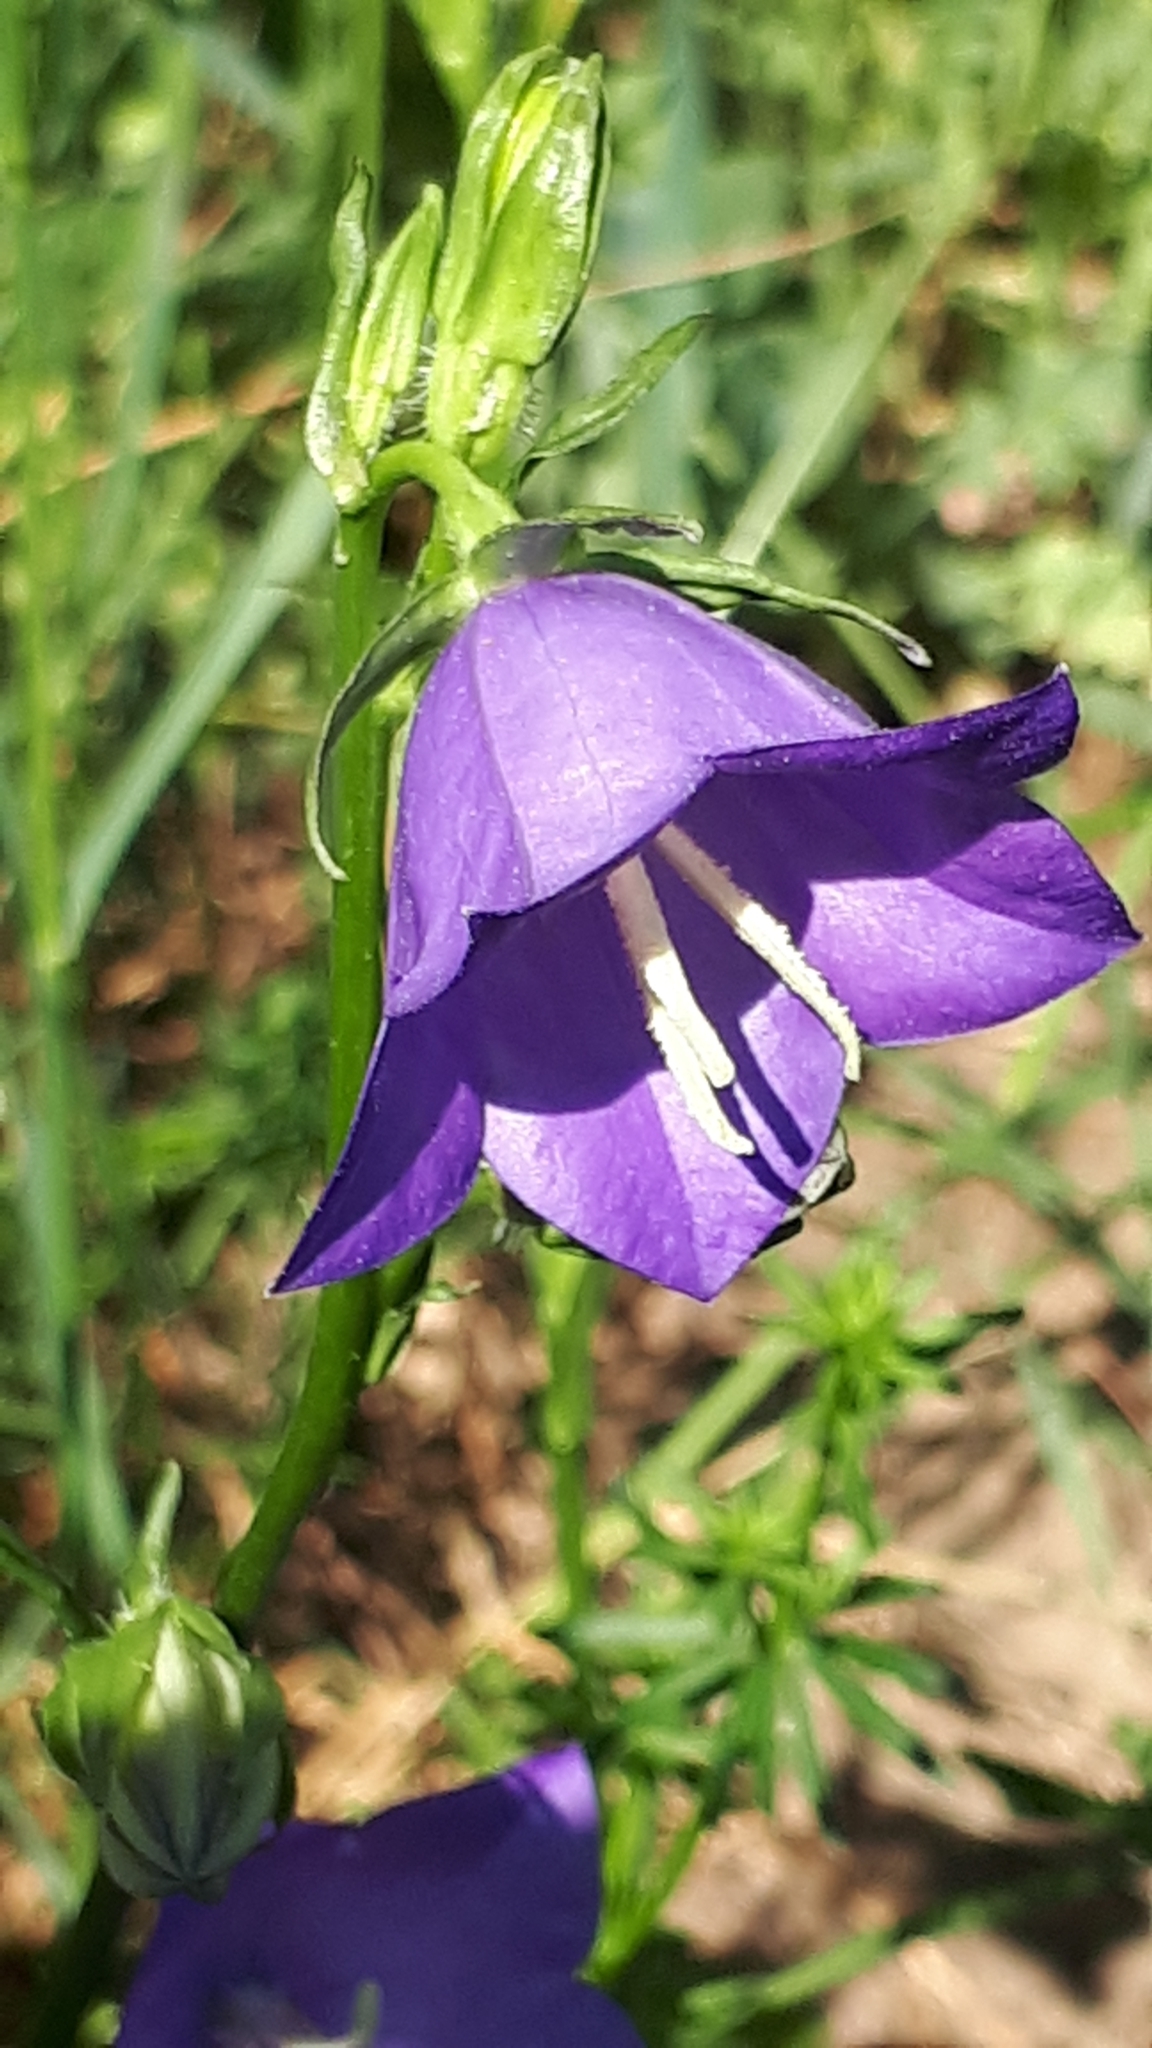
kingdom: Plantae
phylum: Tracheophyta
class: Magnoliopsida
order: Asterales
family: Campanulaceae
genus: Campanula
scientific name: Campanula persicifolia
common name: Peach-leaved bellflower
